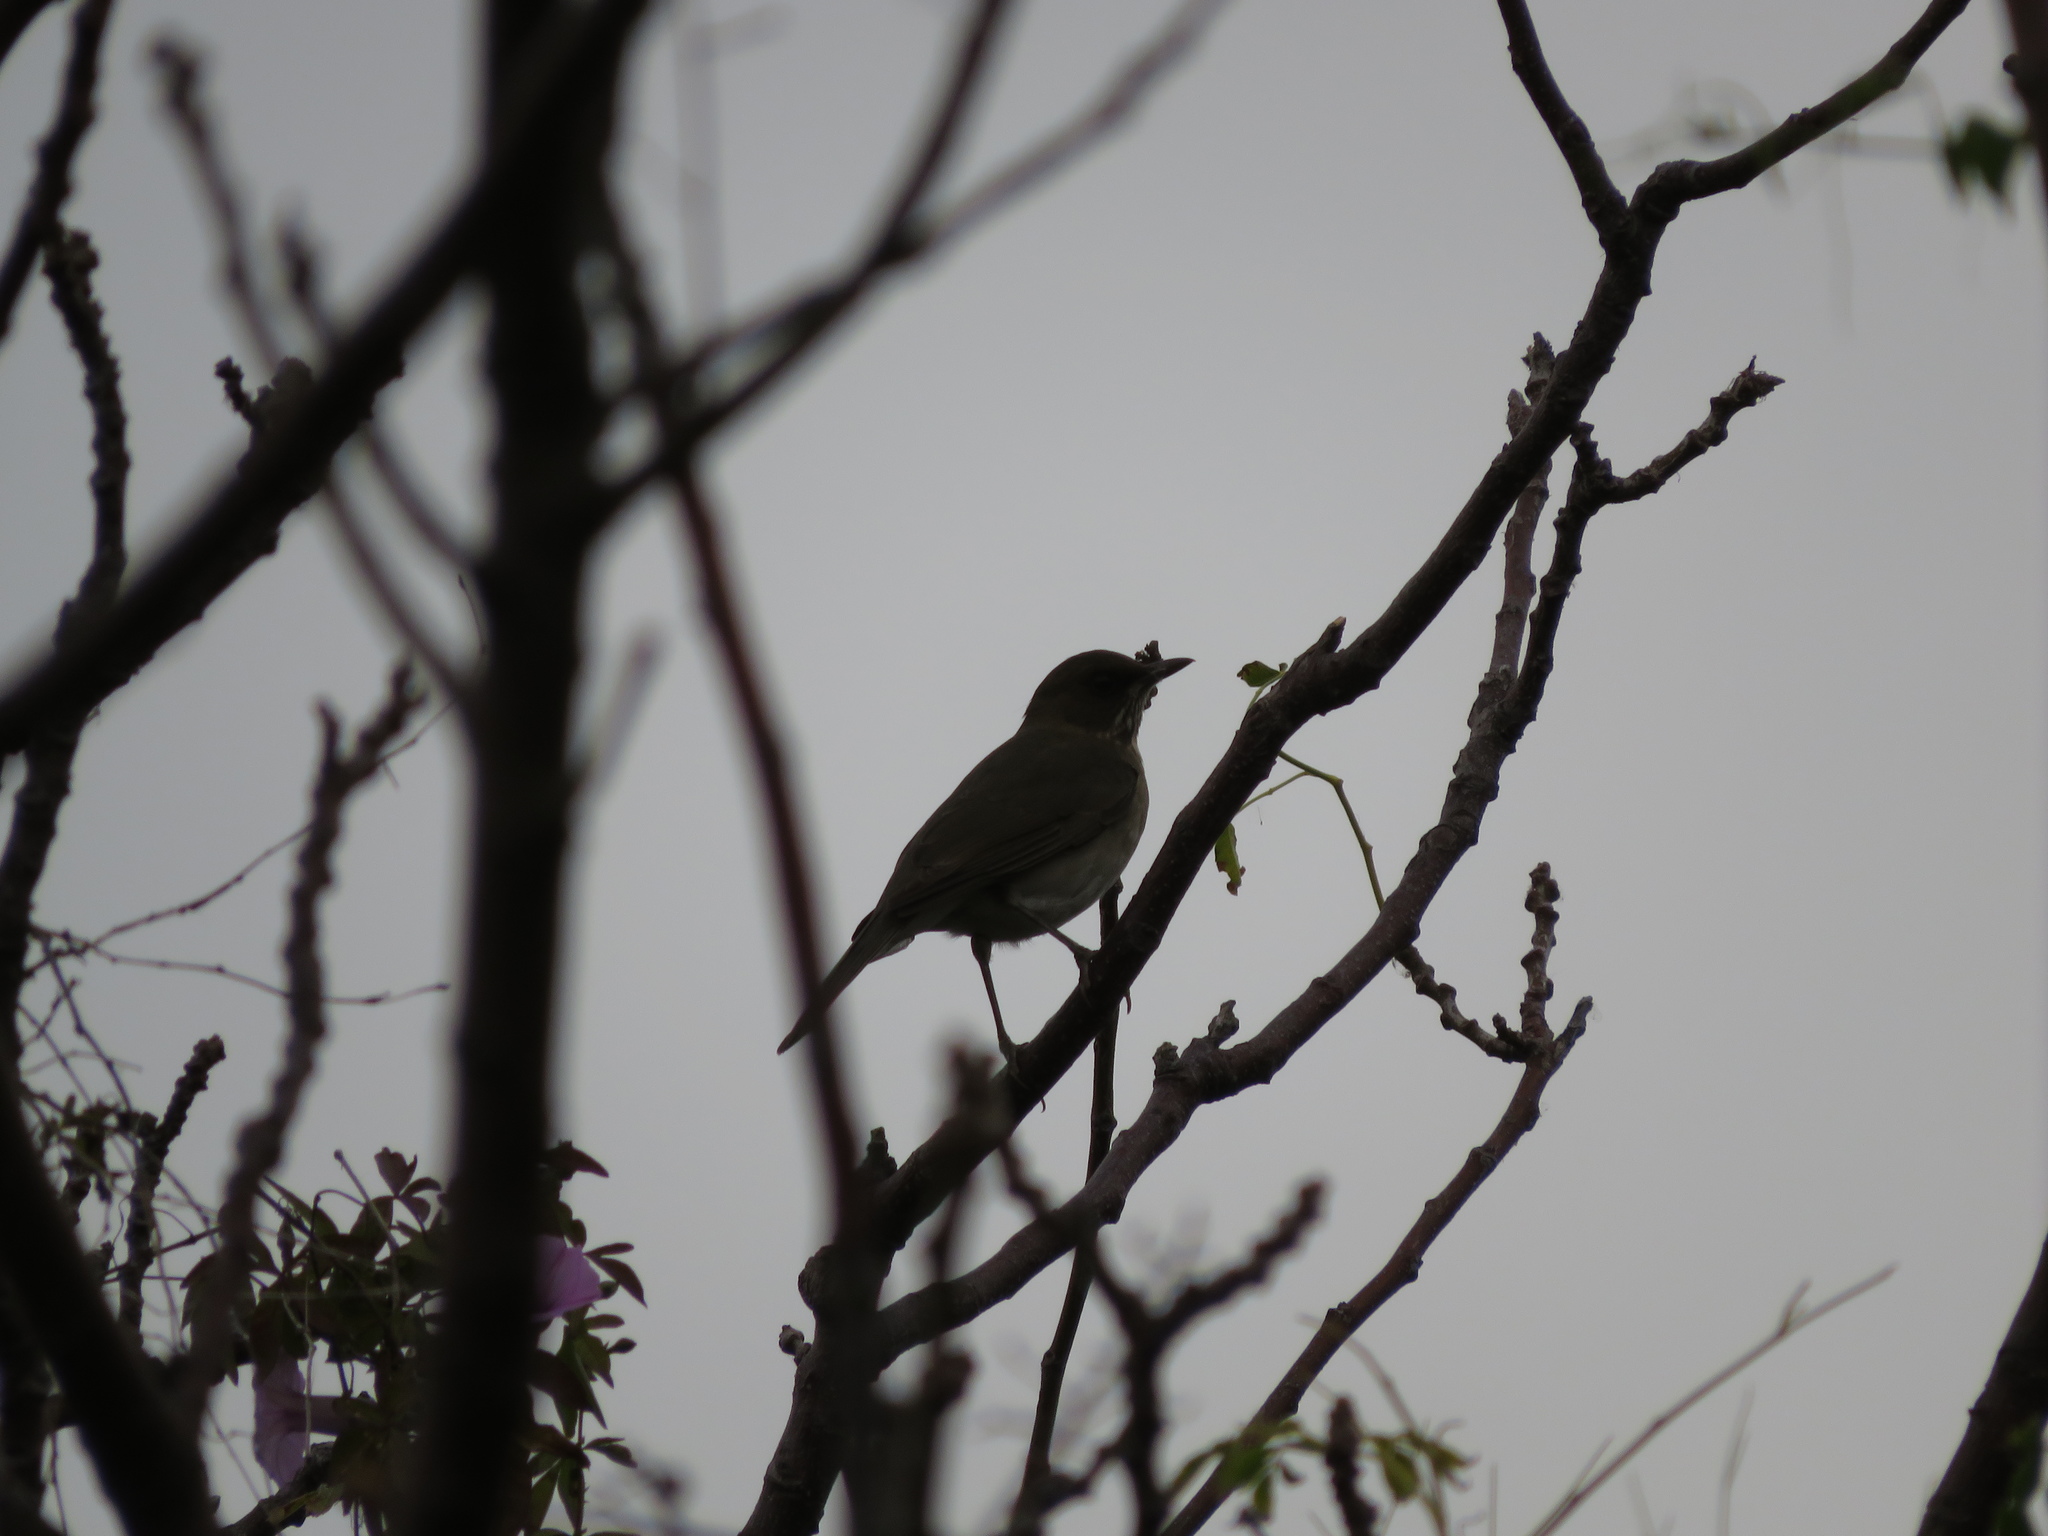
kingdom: Animalia
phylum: Chordata
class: Aves
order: Passeriformes
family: Turdidae
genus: Turdus
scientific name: Turdus amaurochalinus
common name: Creamy-bellied thrush
